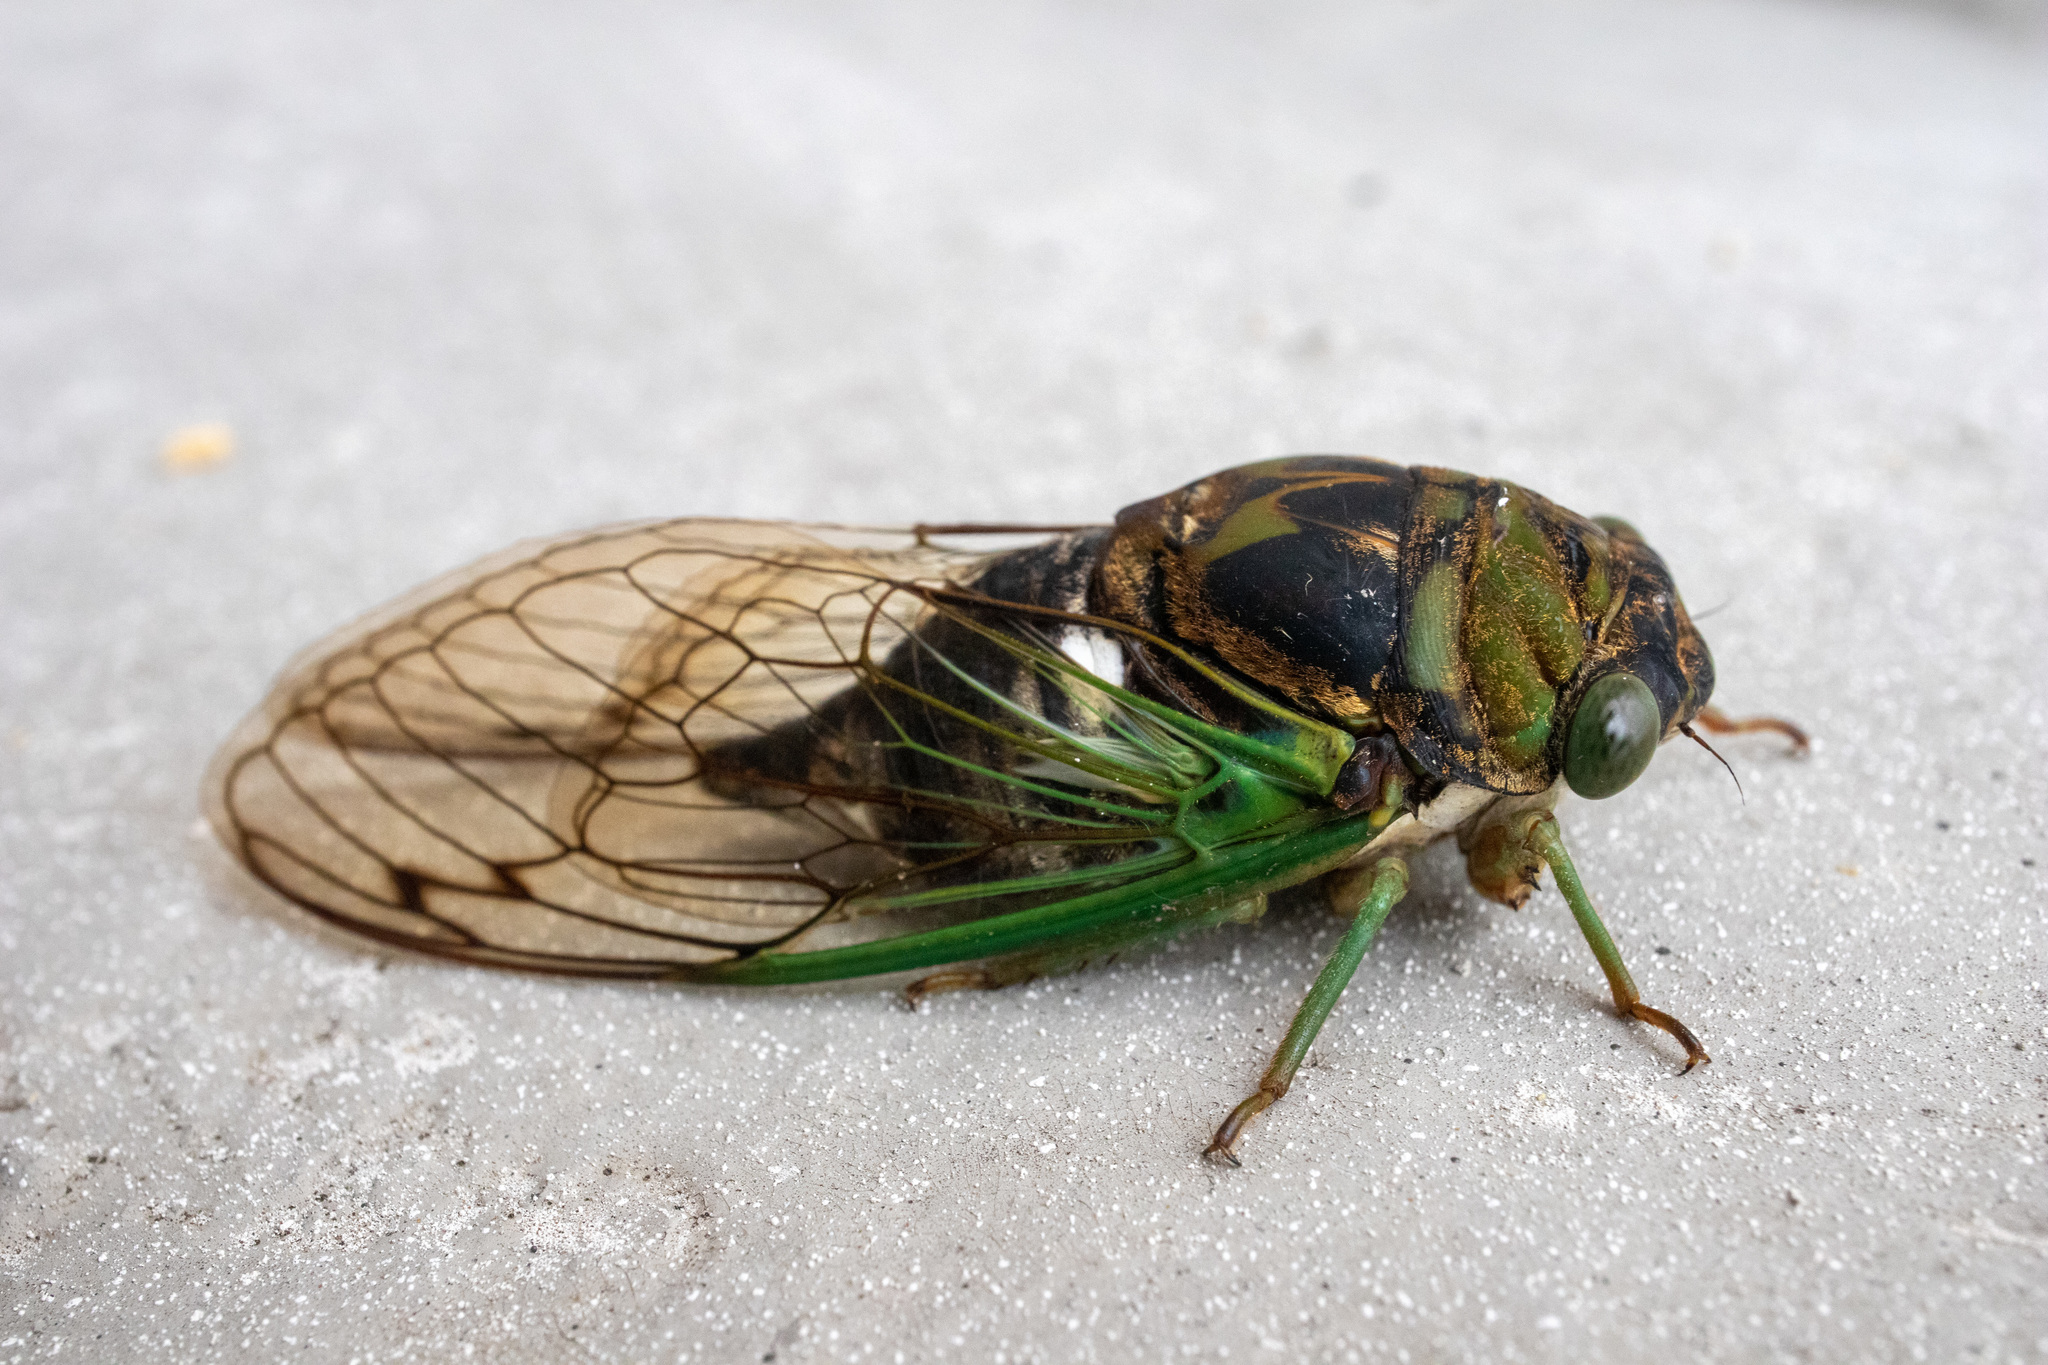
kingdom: Animalia
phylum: Arthropoda
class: Insecta
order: Hemiptera
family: Cicadidae
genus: Neotibicen
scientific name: Neotibicen tibicen
